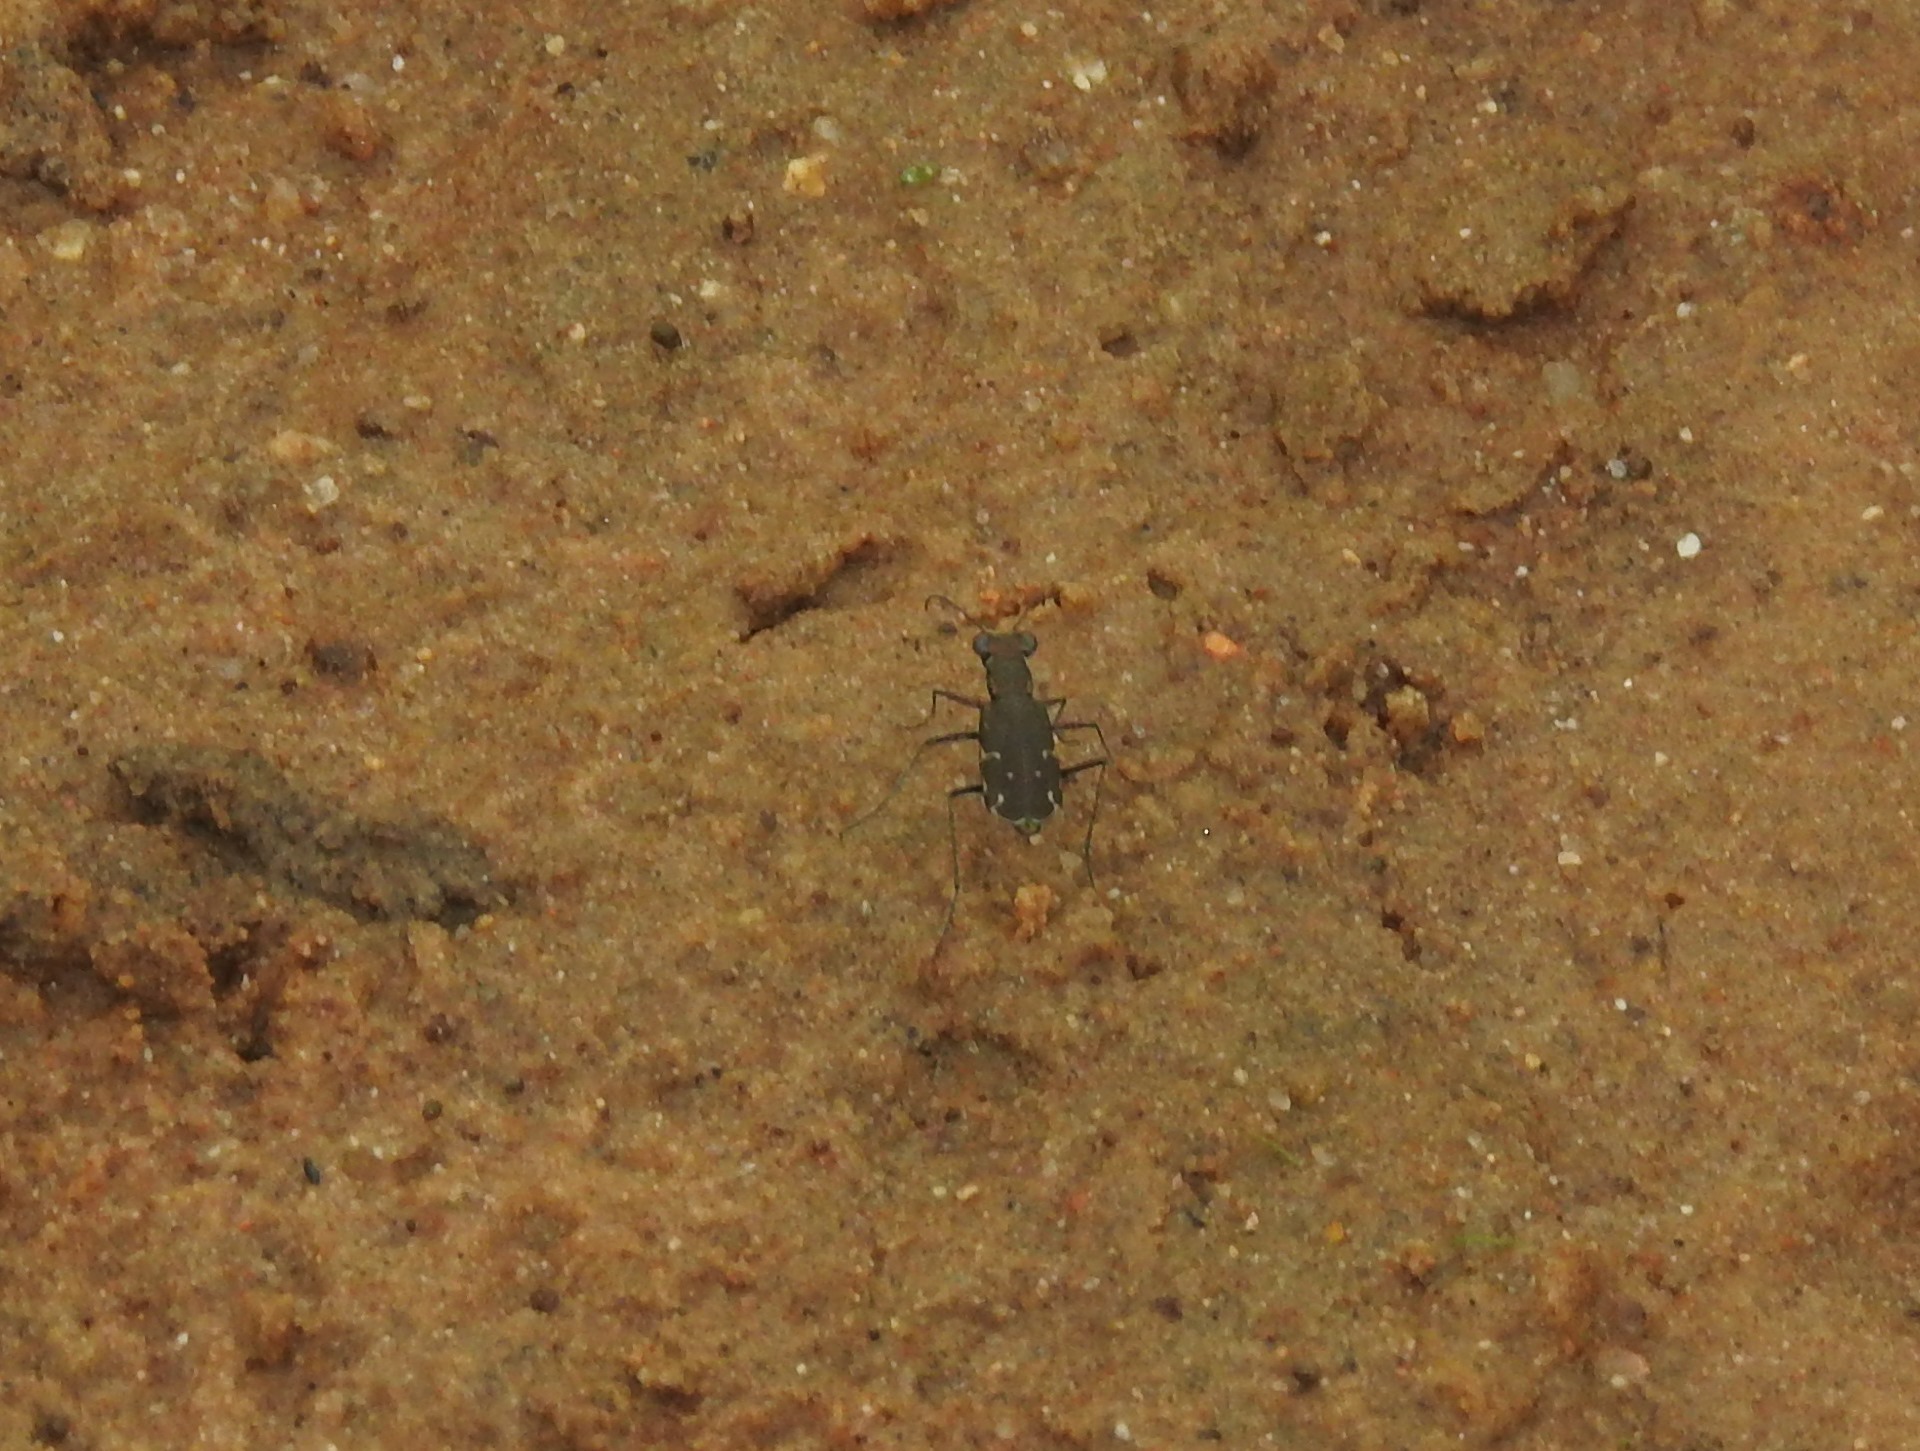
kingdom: Animalia
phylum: Arthropoda
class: Insecta
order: Coleoptera
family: Carabidae
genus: Myriochila
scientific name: Myriochila undulata
